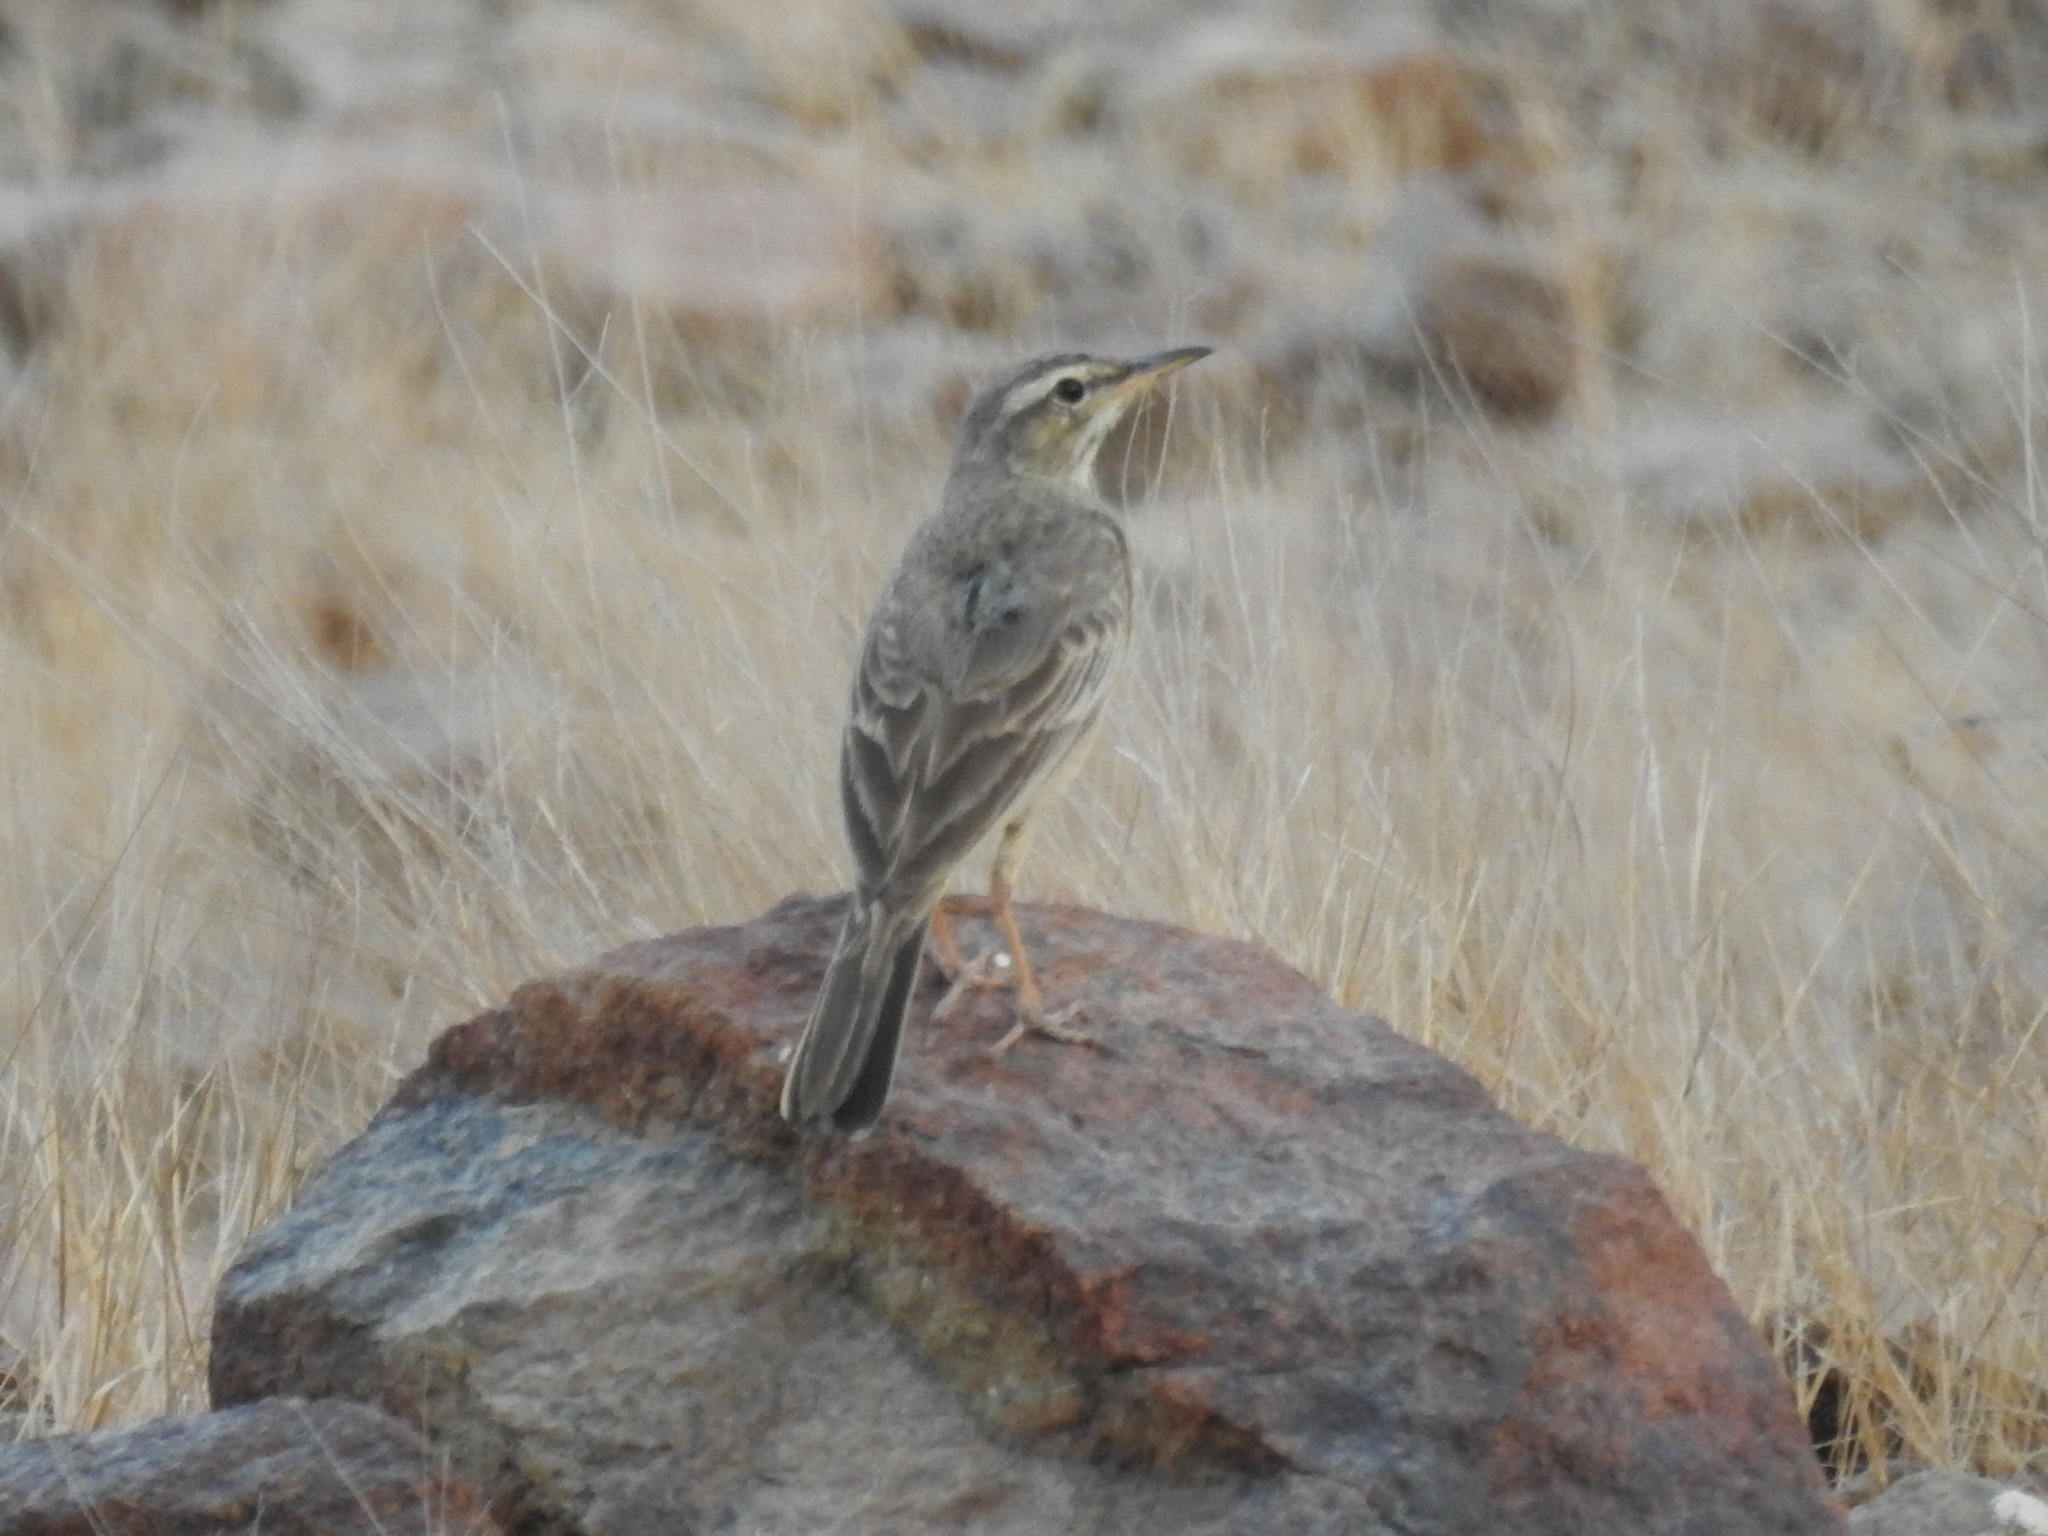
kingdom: Animalia
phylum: Chordata
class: Aves
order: Passeriformes
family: Motacillidae
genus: Anthus
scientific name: Anthus similis
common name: Long-billed pipit
